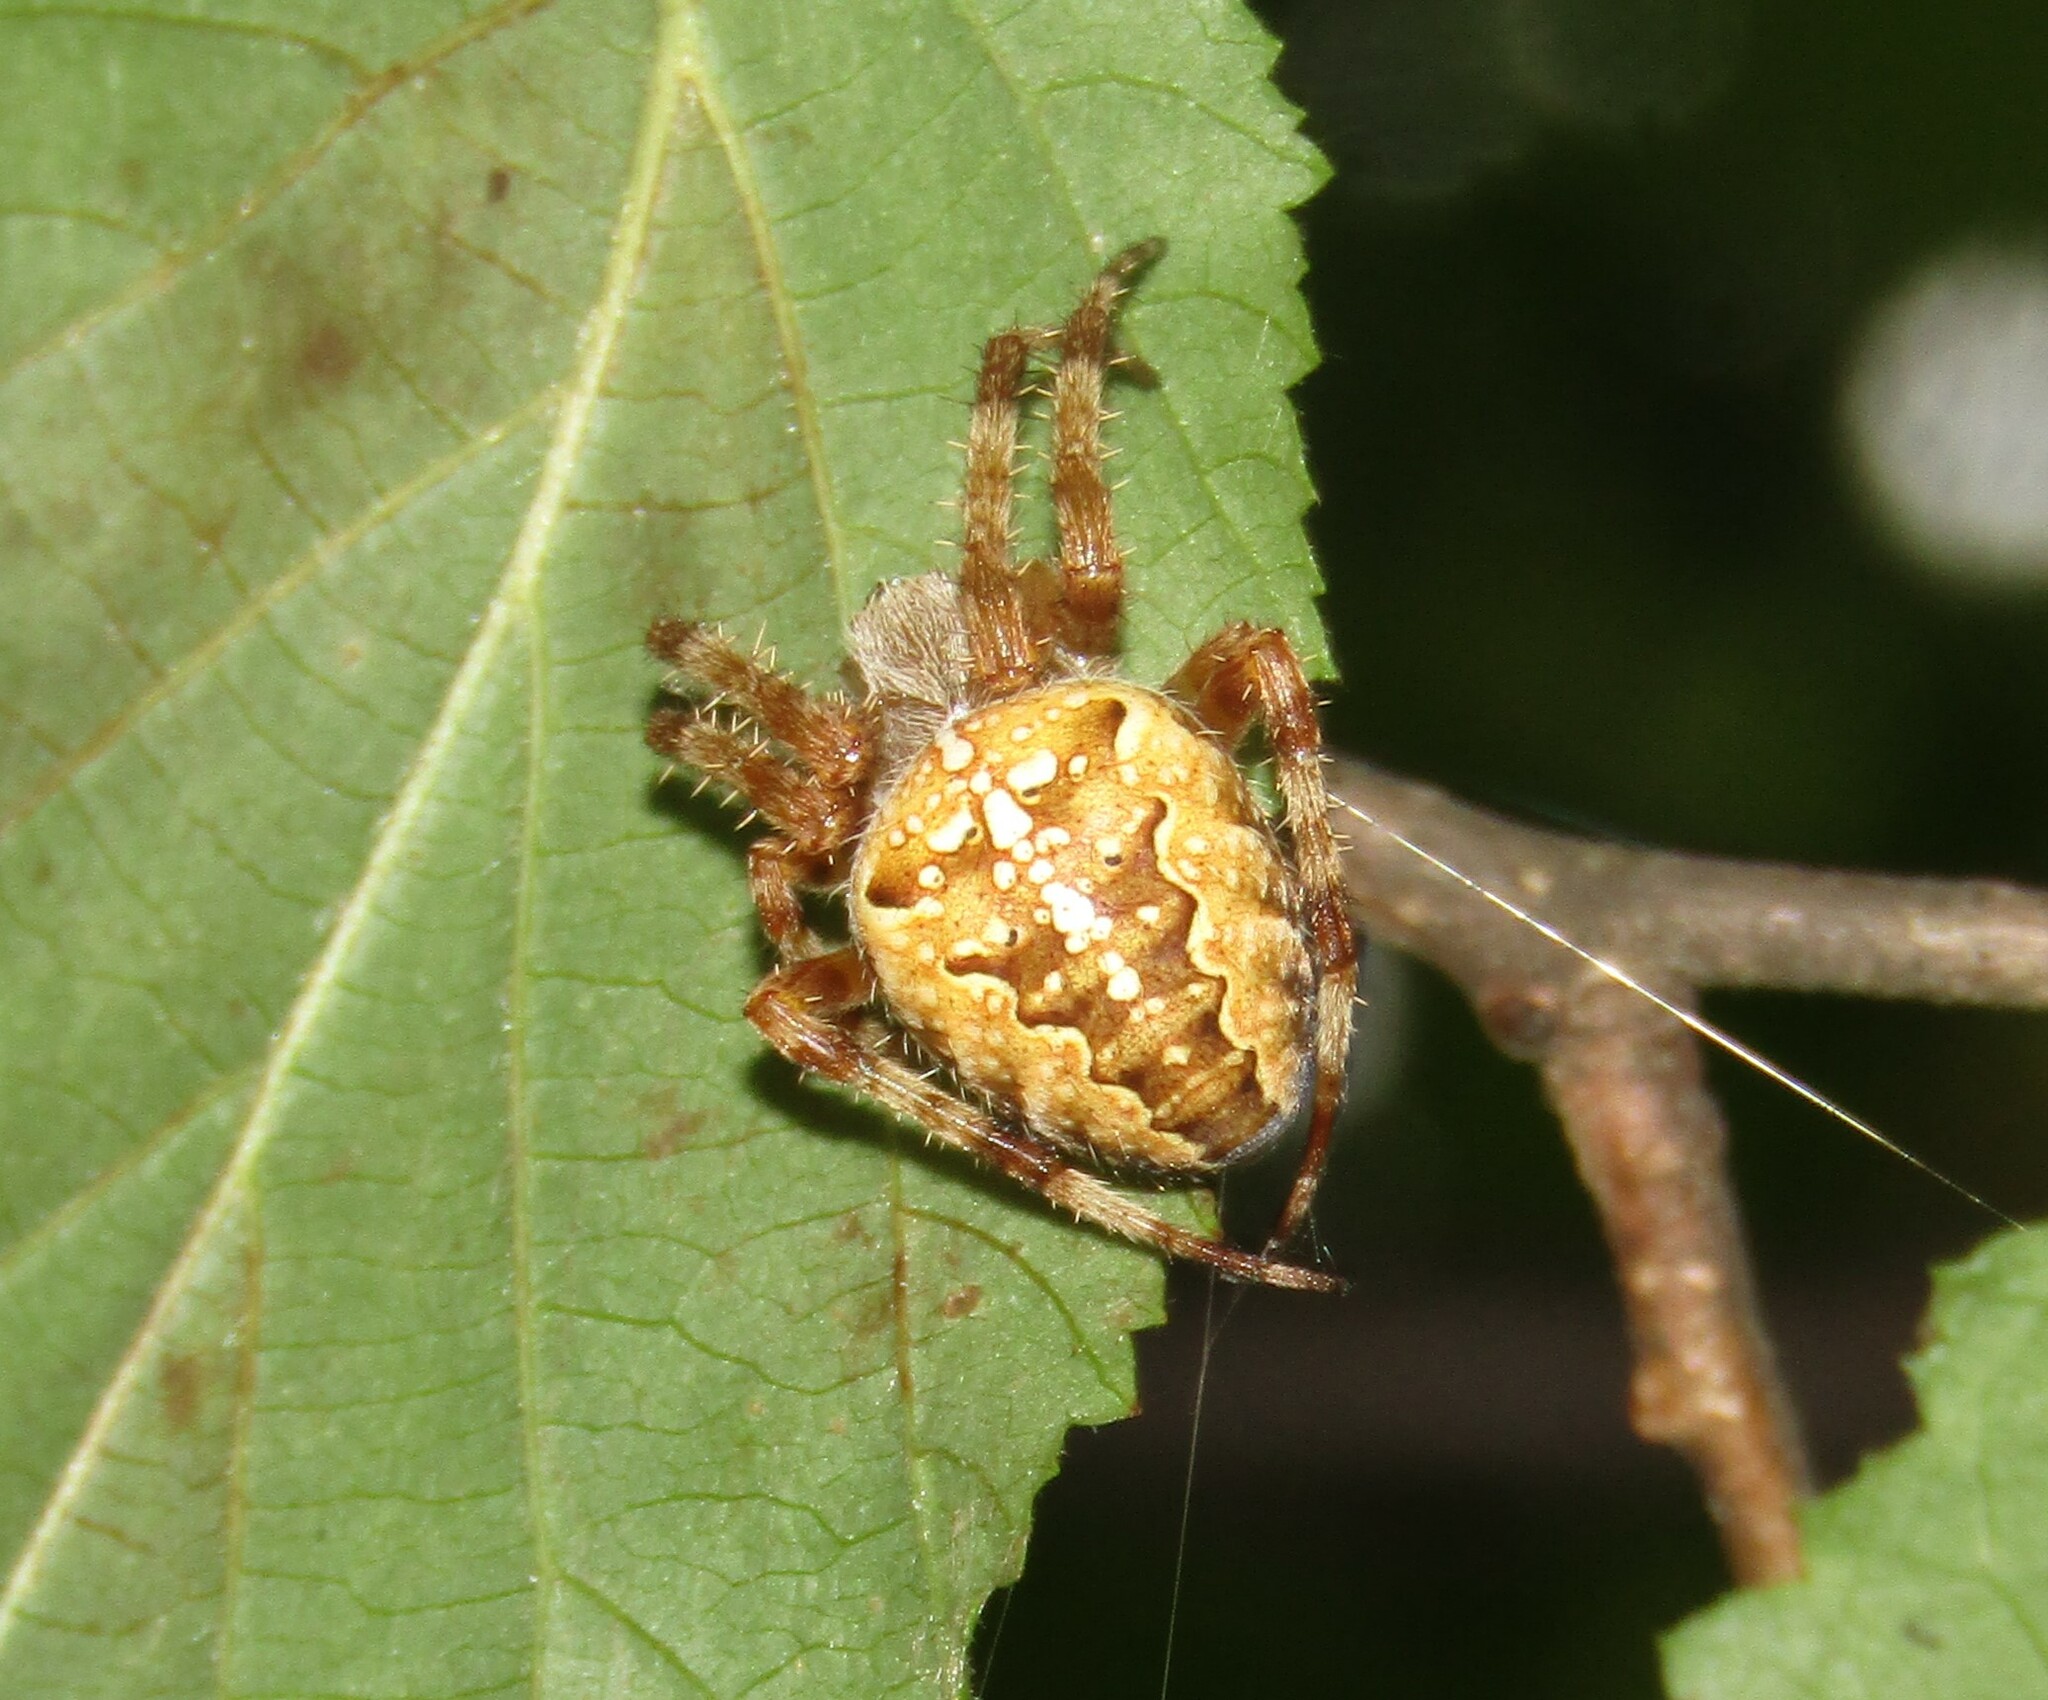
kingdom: Animalia
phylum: Arthropoda
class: Arachnida
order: Araneae
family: Araneidae
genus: Araneus
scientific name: Araneus diadematus
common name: Cross orbweaver
